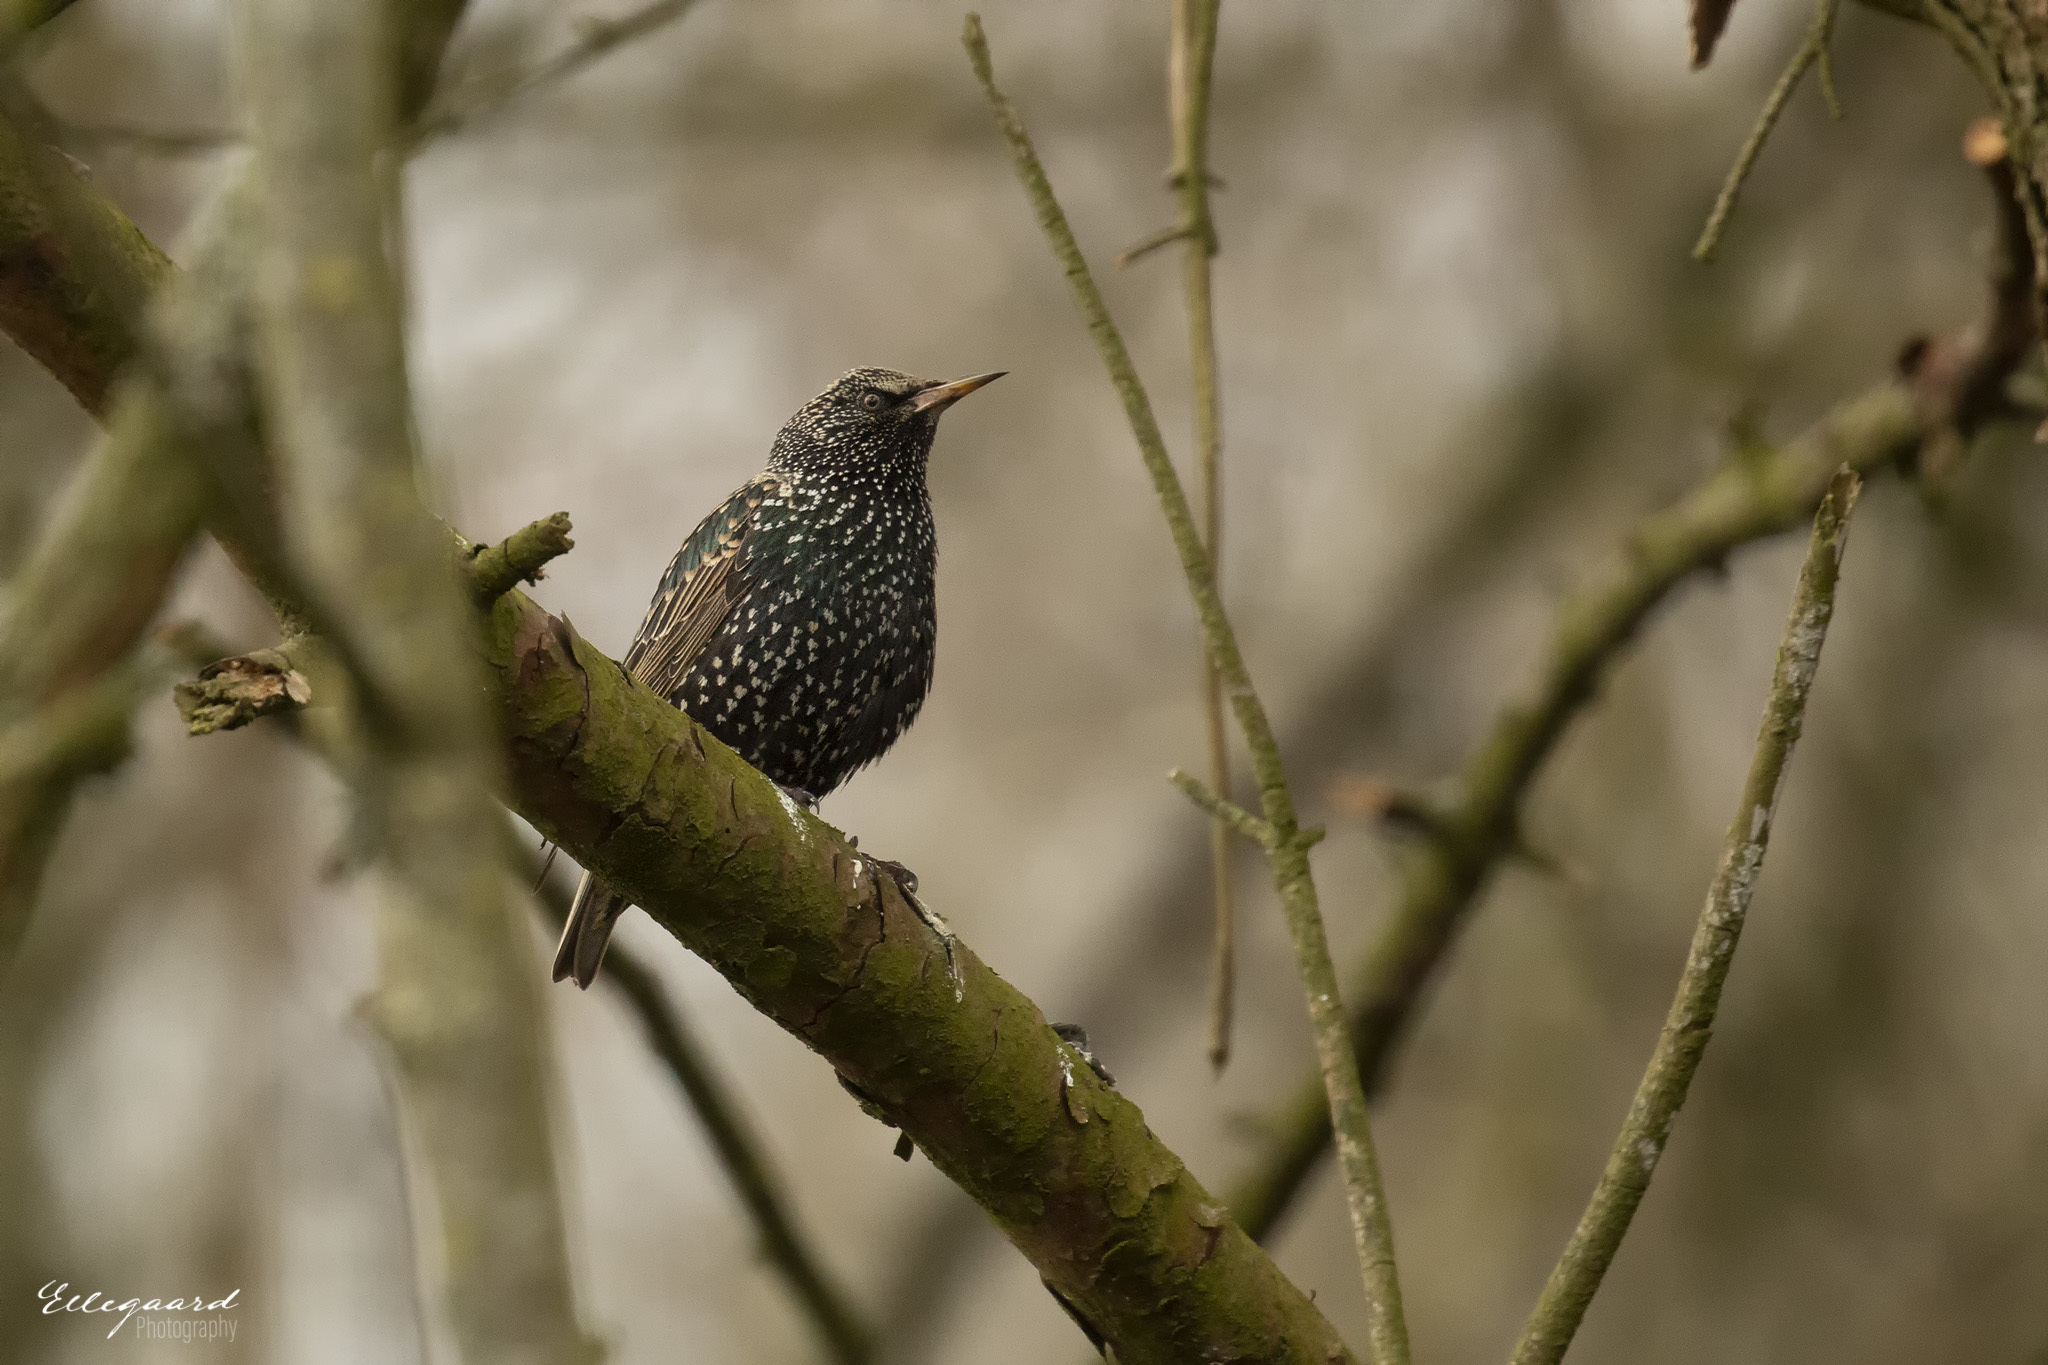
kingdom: Animalia
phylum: Chordata
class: Aves
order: Passeriformes
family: Sturnidae
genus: Sturnus
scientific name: Sturnus vulgaris
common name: Common starling
